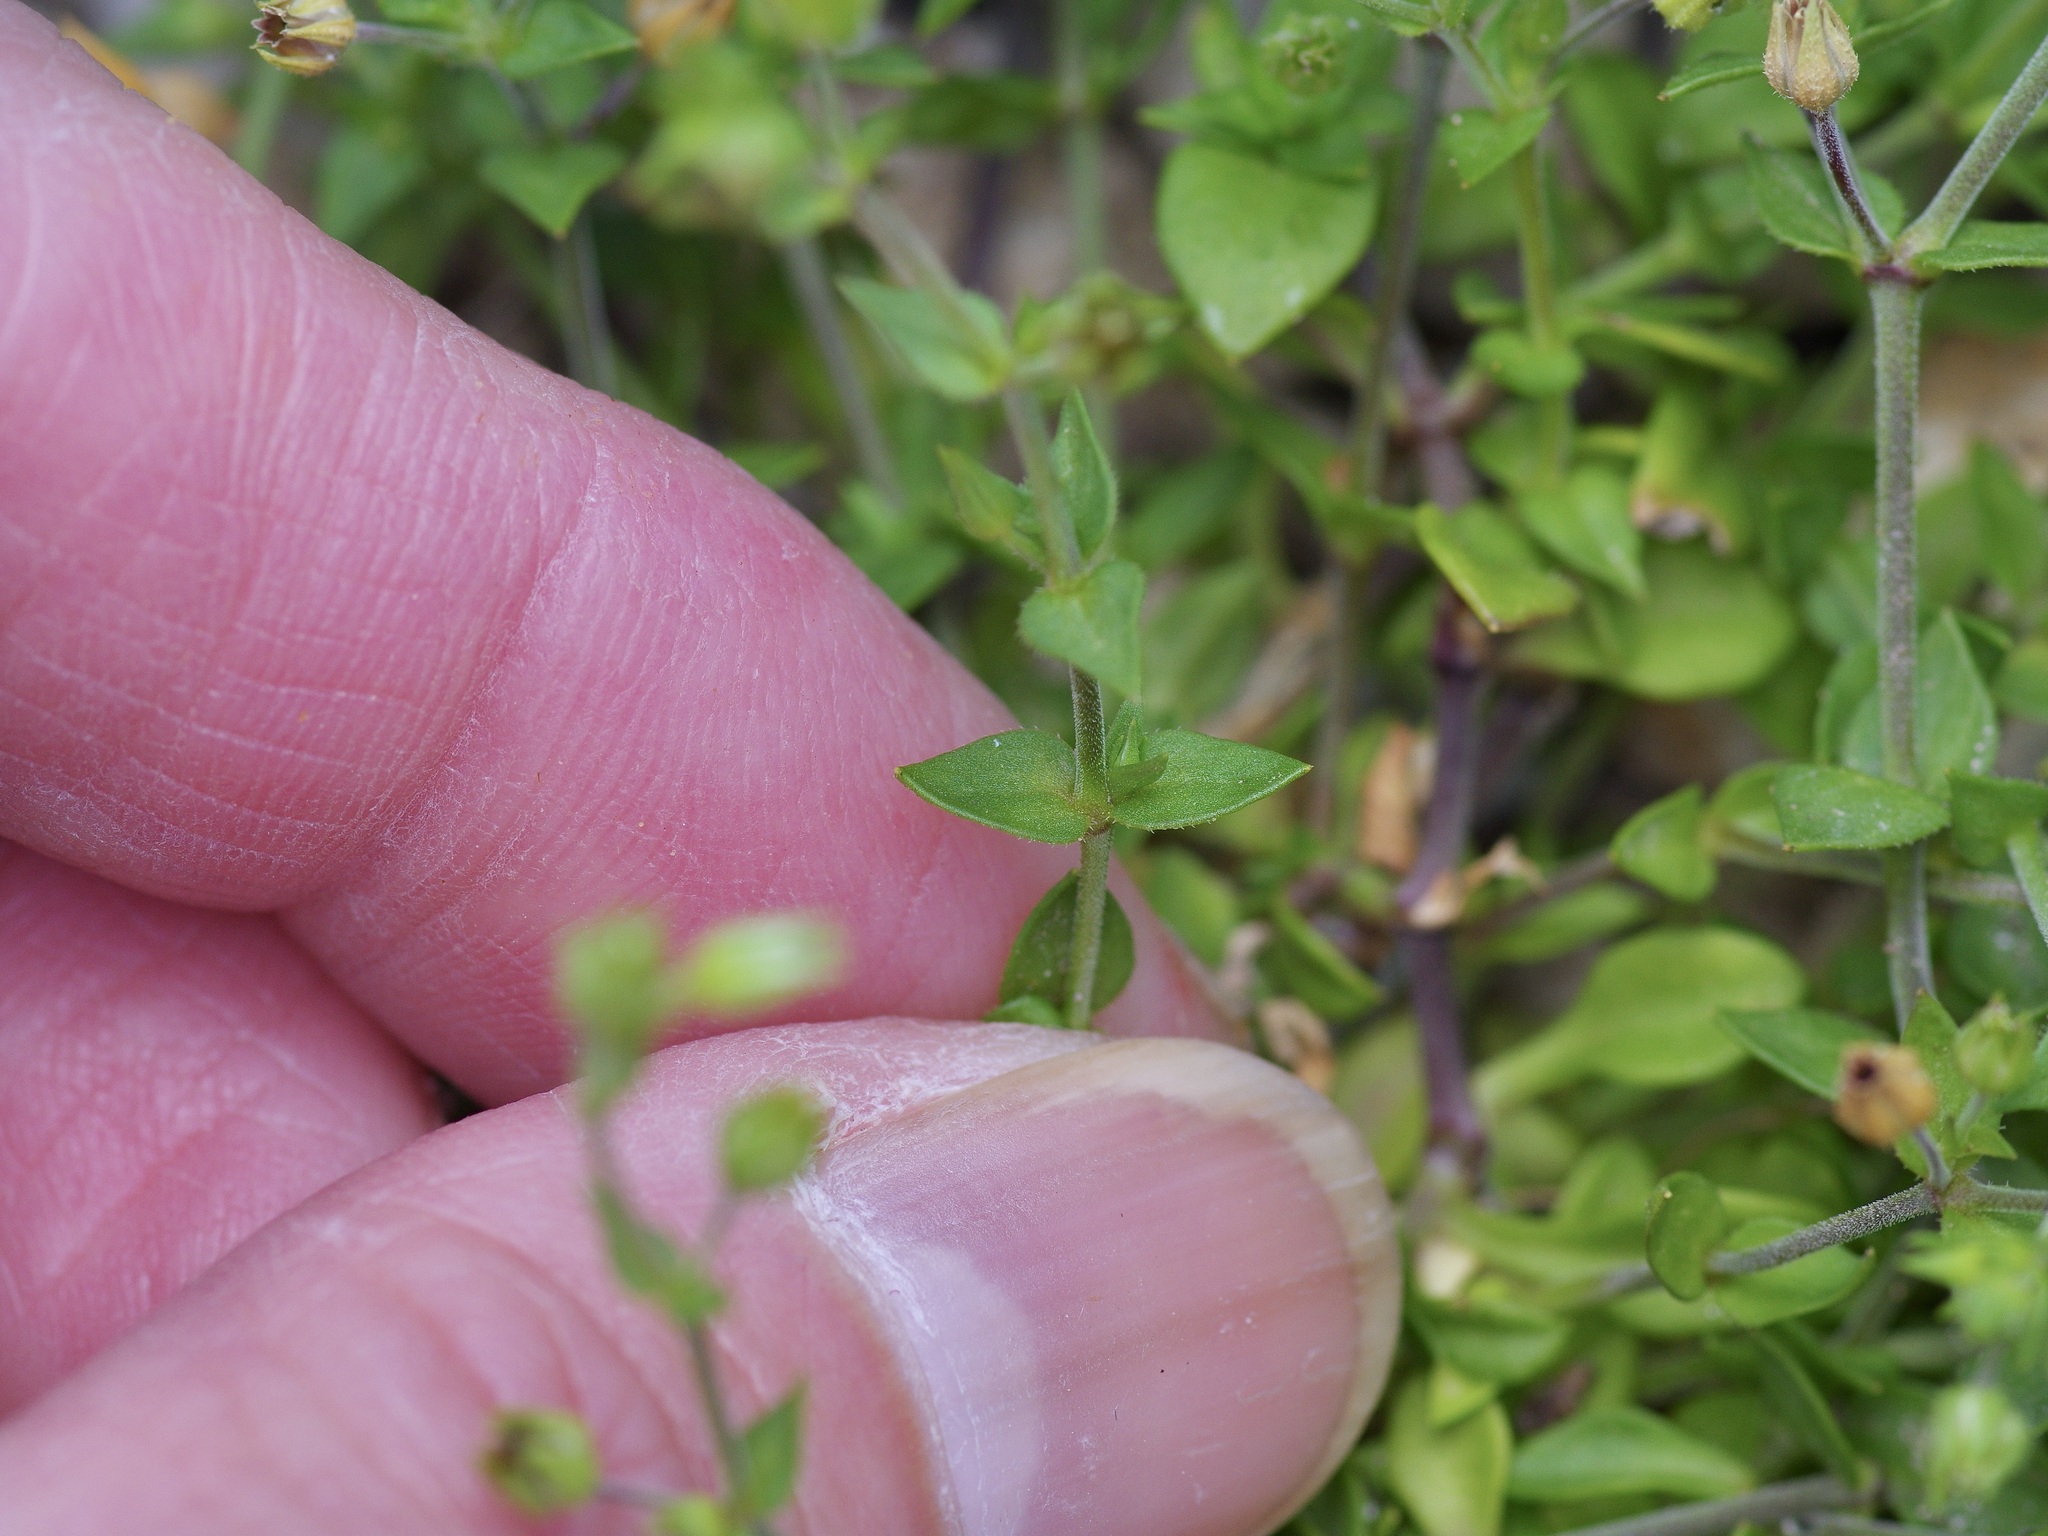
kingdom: Plantae
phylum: Tracheophyta
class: Magnoliopsida
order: Caryophyllales
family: Caryophyllaceae
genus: Arenaria
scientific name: Arenaria serpyllifolia
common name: Thyme-leaved sandwort
